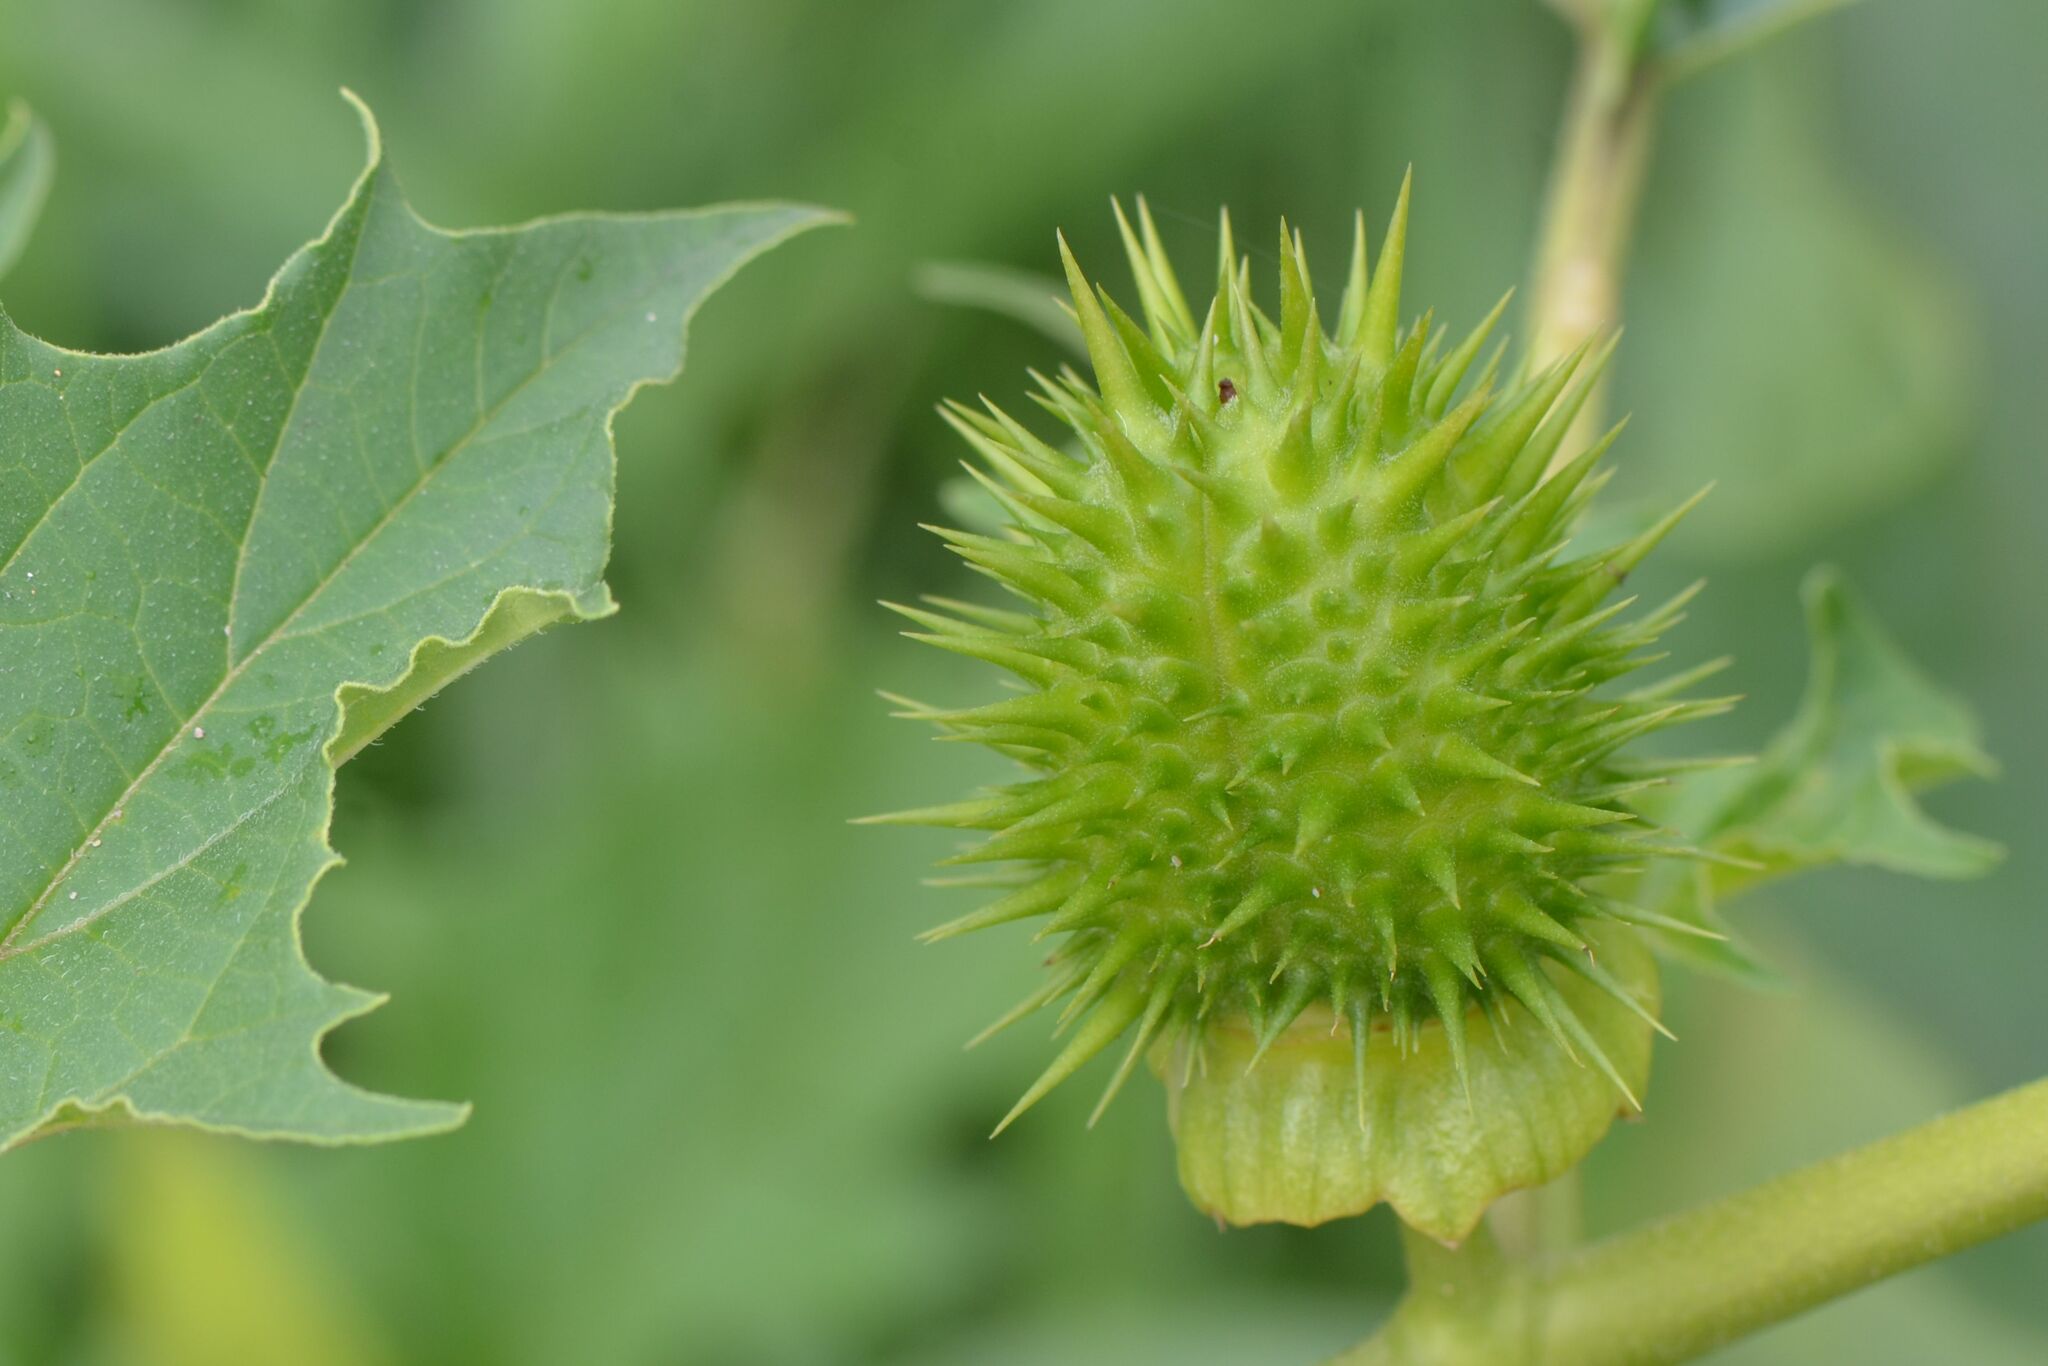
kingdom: Plantae
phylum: Tracheophyta
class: Magnoliopsida
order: Solanales
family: Solanaceae
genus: Datura
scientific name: Datura stramonium
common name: Thorn-apple
